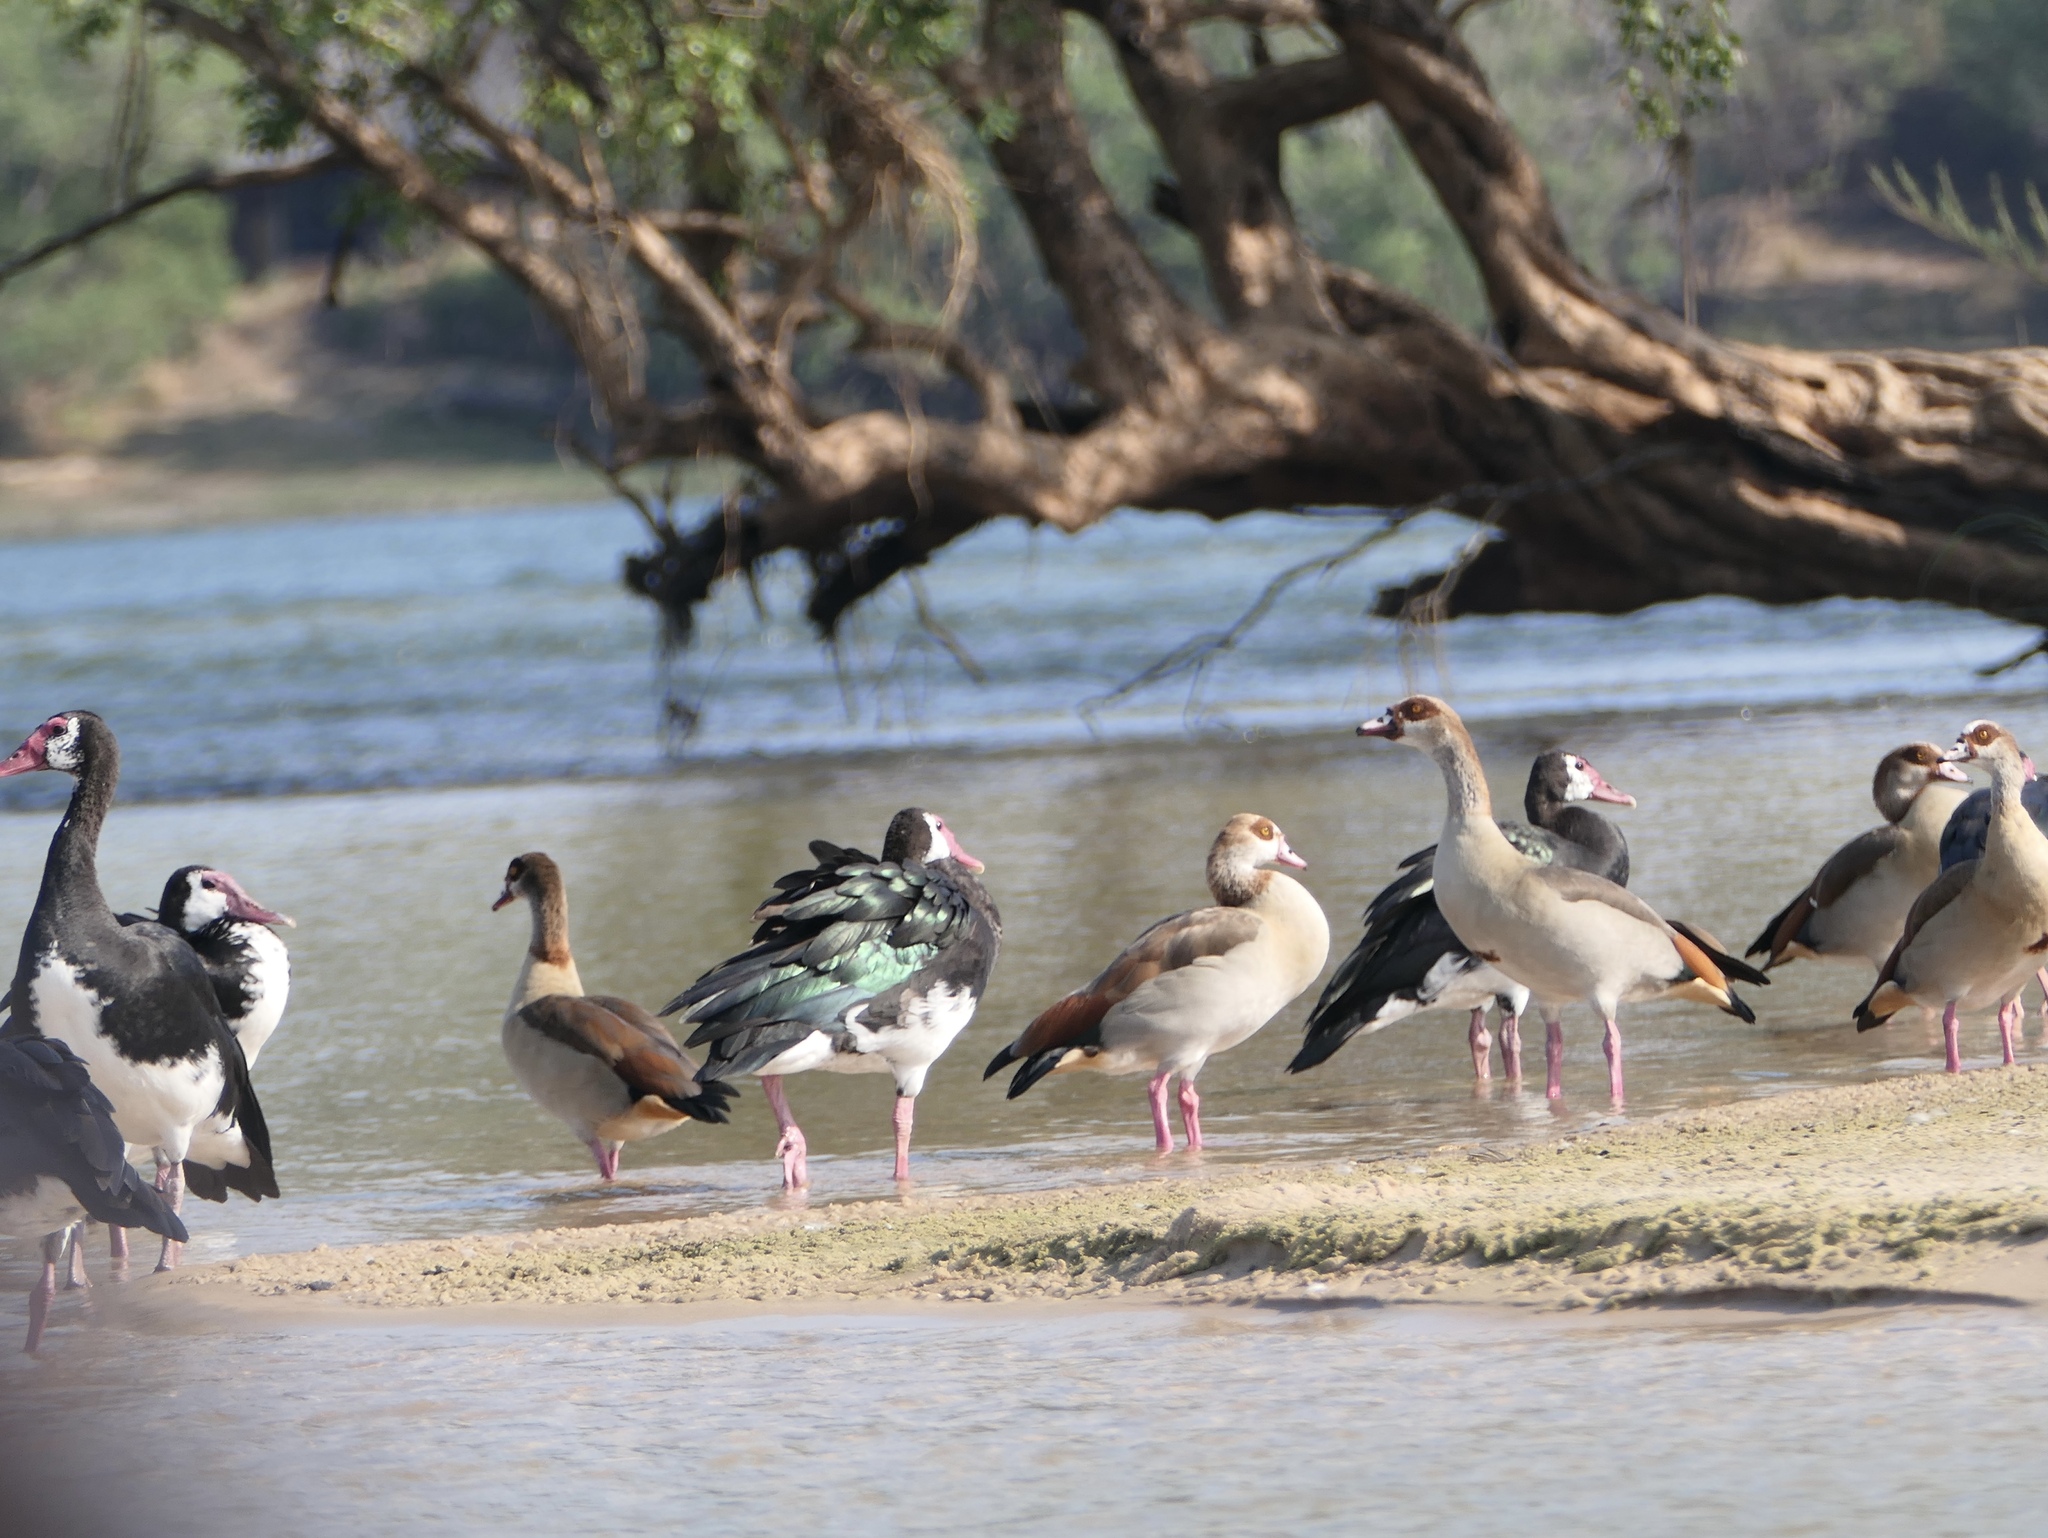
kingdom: Animalia
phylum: Chordata
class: Aves
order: Anseriformes
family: Anatidae
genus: Plectropterus
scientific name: Plectropterus gambensis
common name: Spur-winged goose
